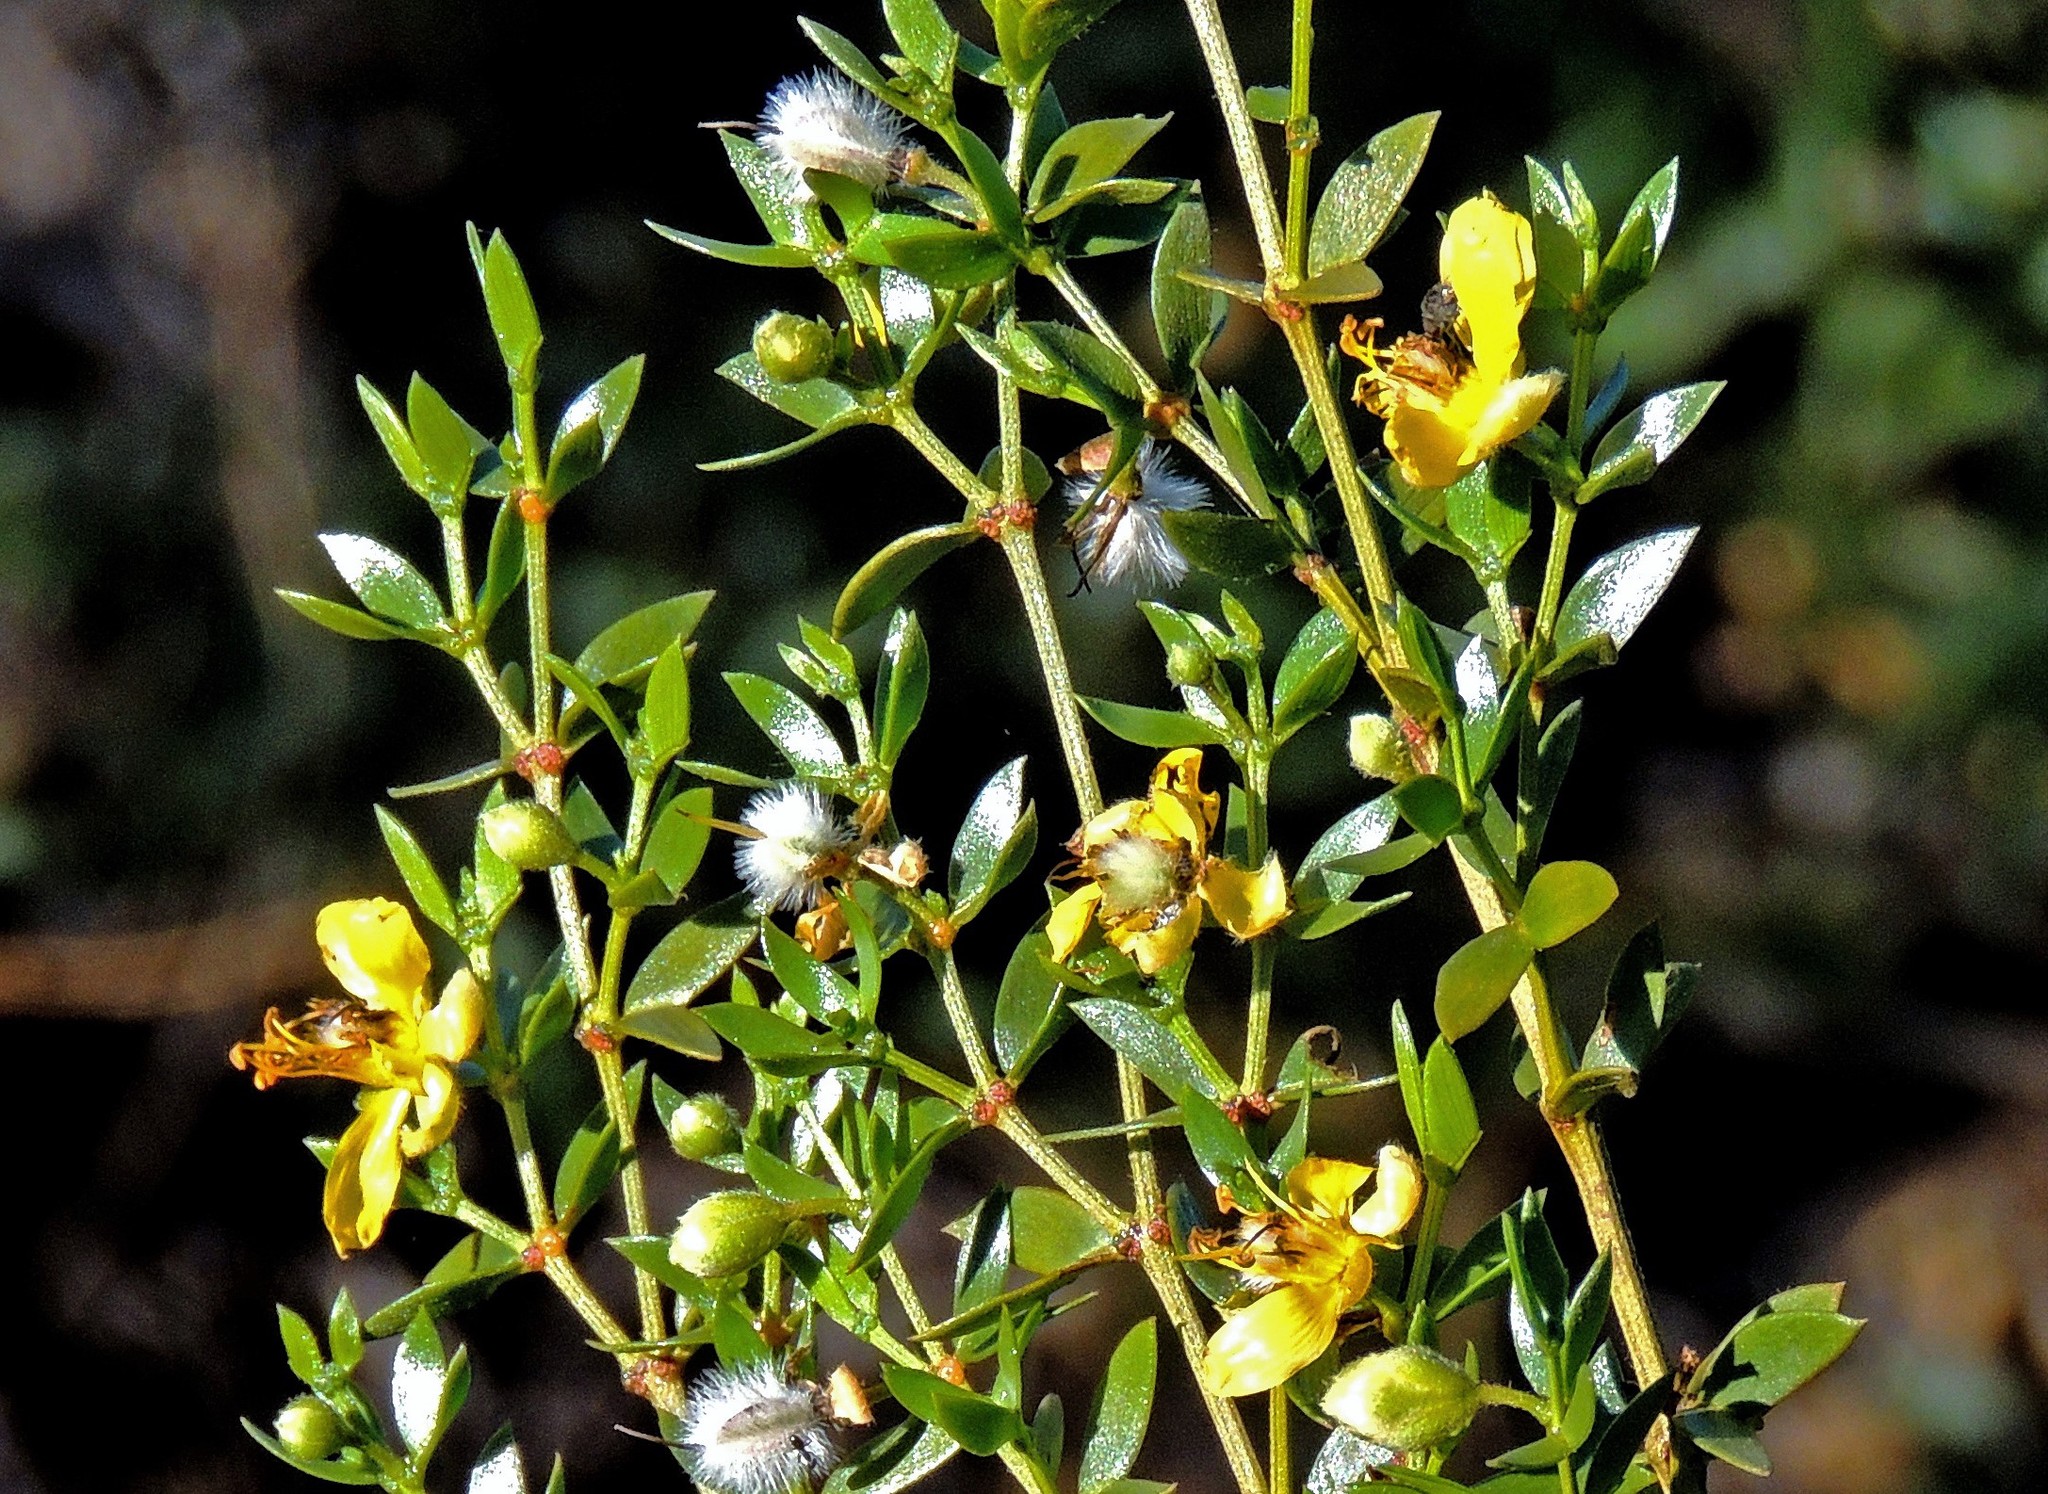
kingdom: Plantae
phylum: Tracheophyta
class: Magnoliopsida
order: Zygophyllales
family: Zygophyllaceae
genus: Larrea
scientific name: Larrea divaricata
